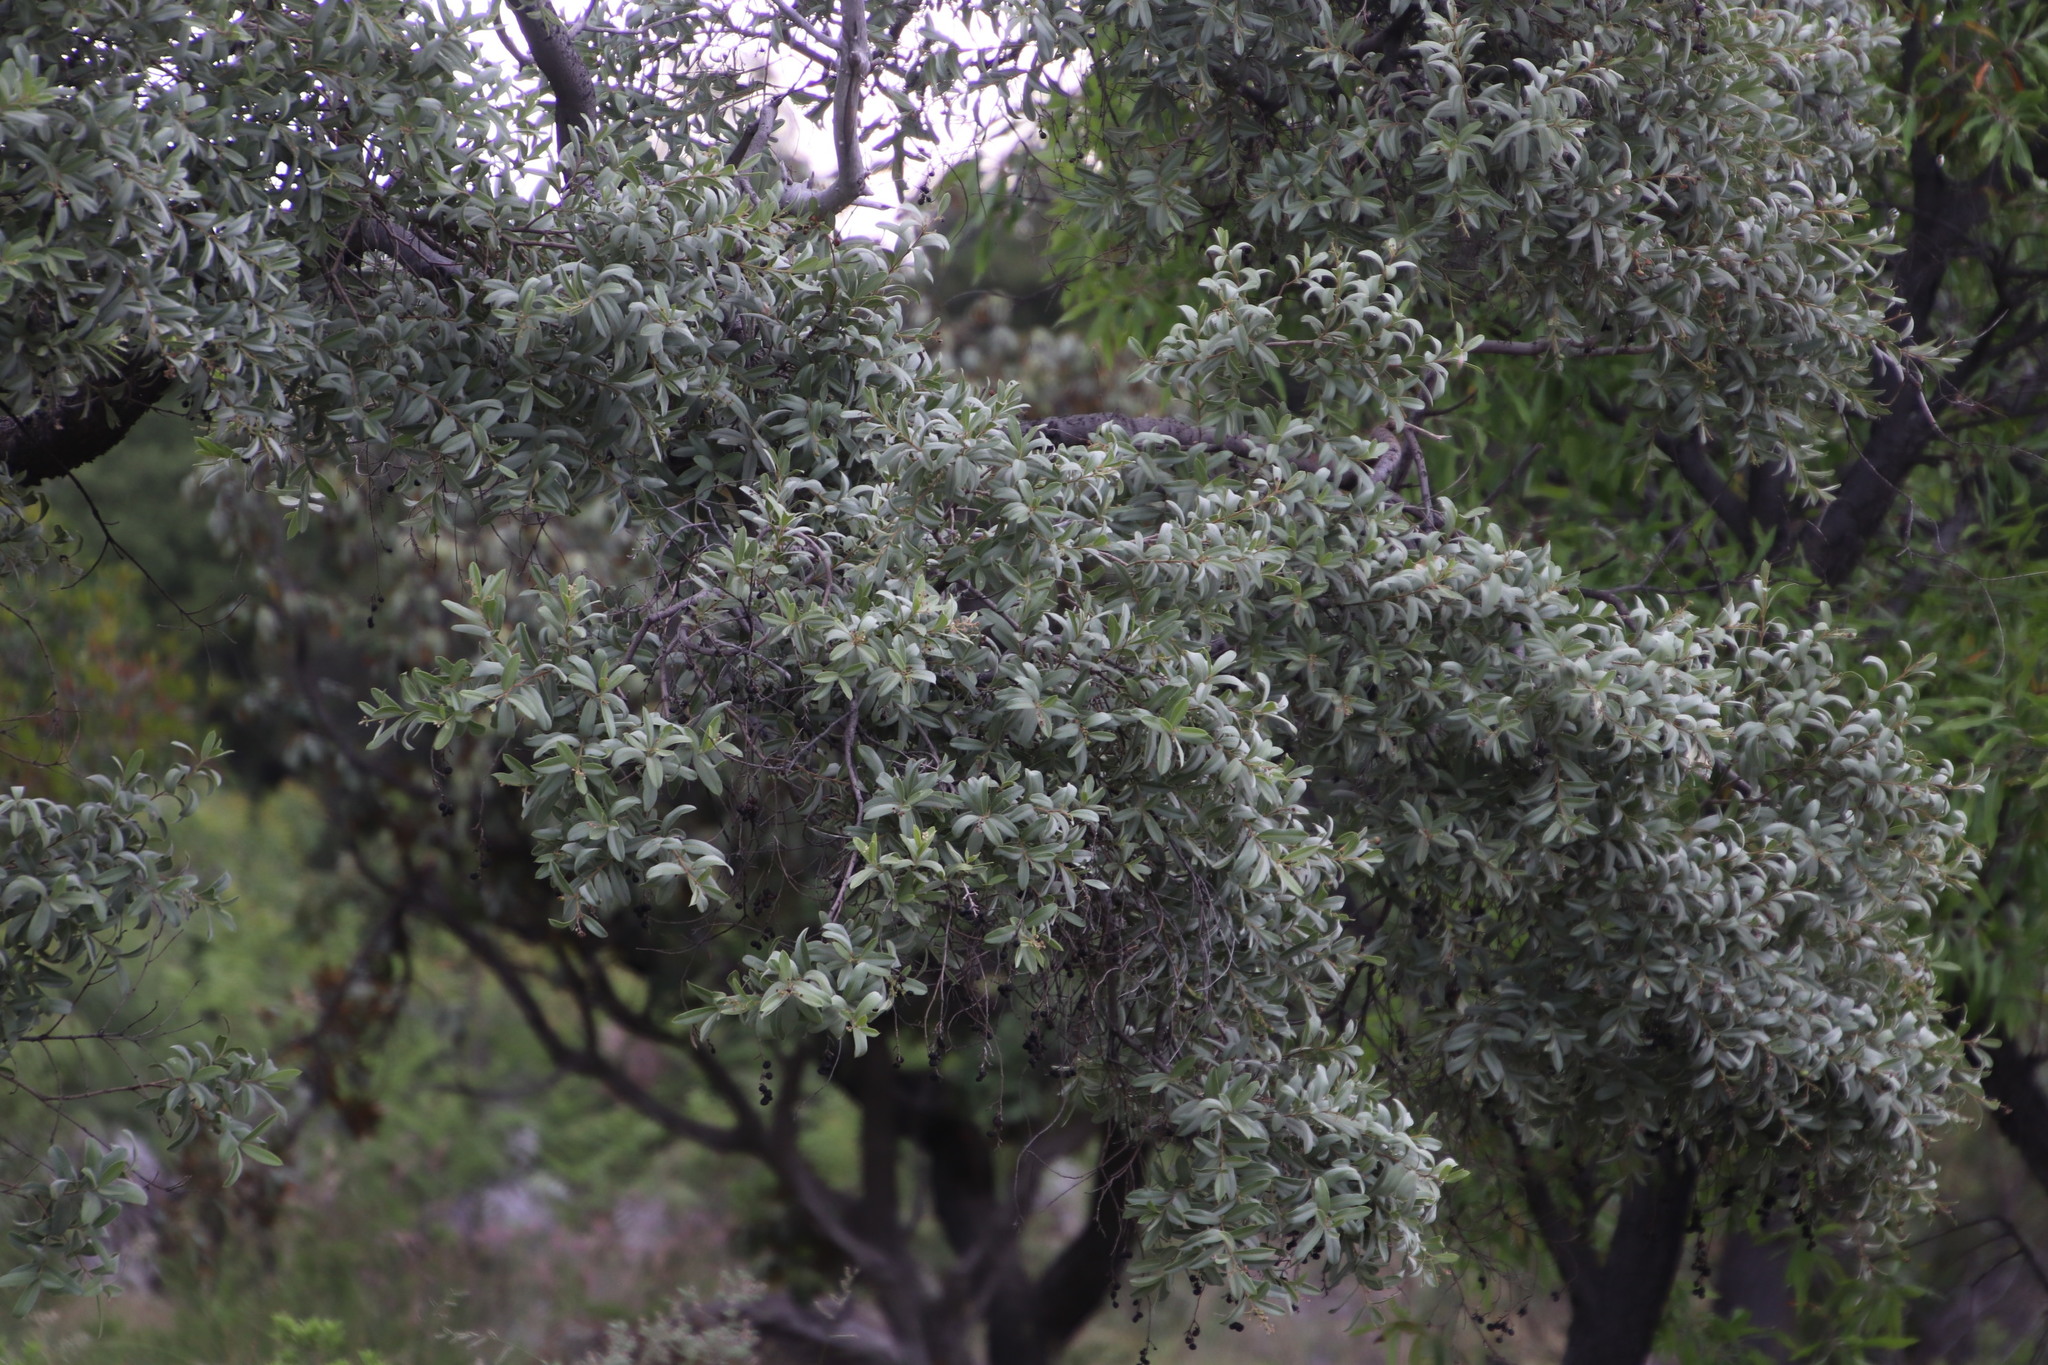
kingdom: Plantae
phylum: Tracheophyta
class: Magnoliopsida
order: Sapindales
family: Anacardiaceae
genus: Ozoroa
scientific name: Ozoroa paniculosa
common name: Bushveld ozoroa
